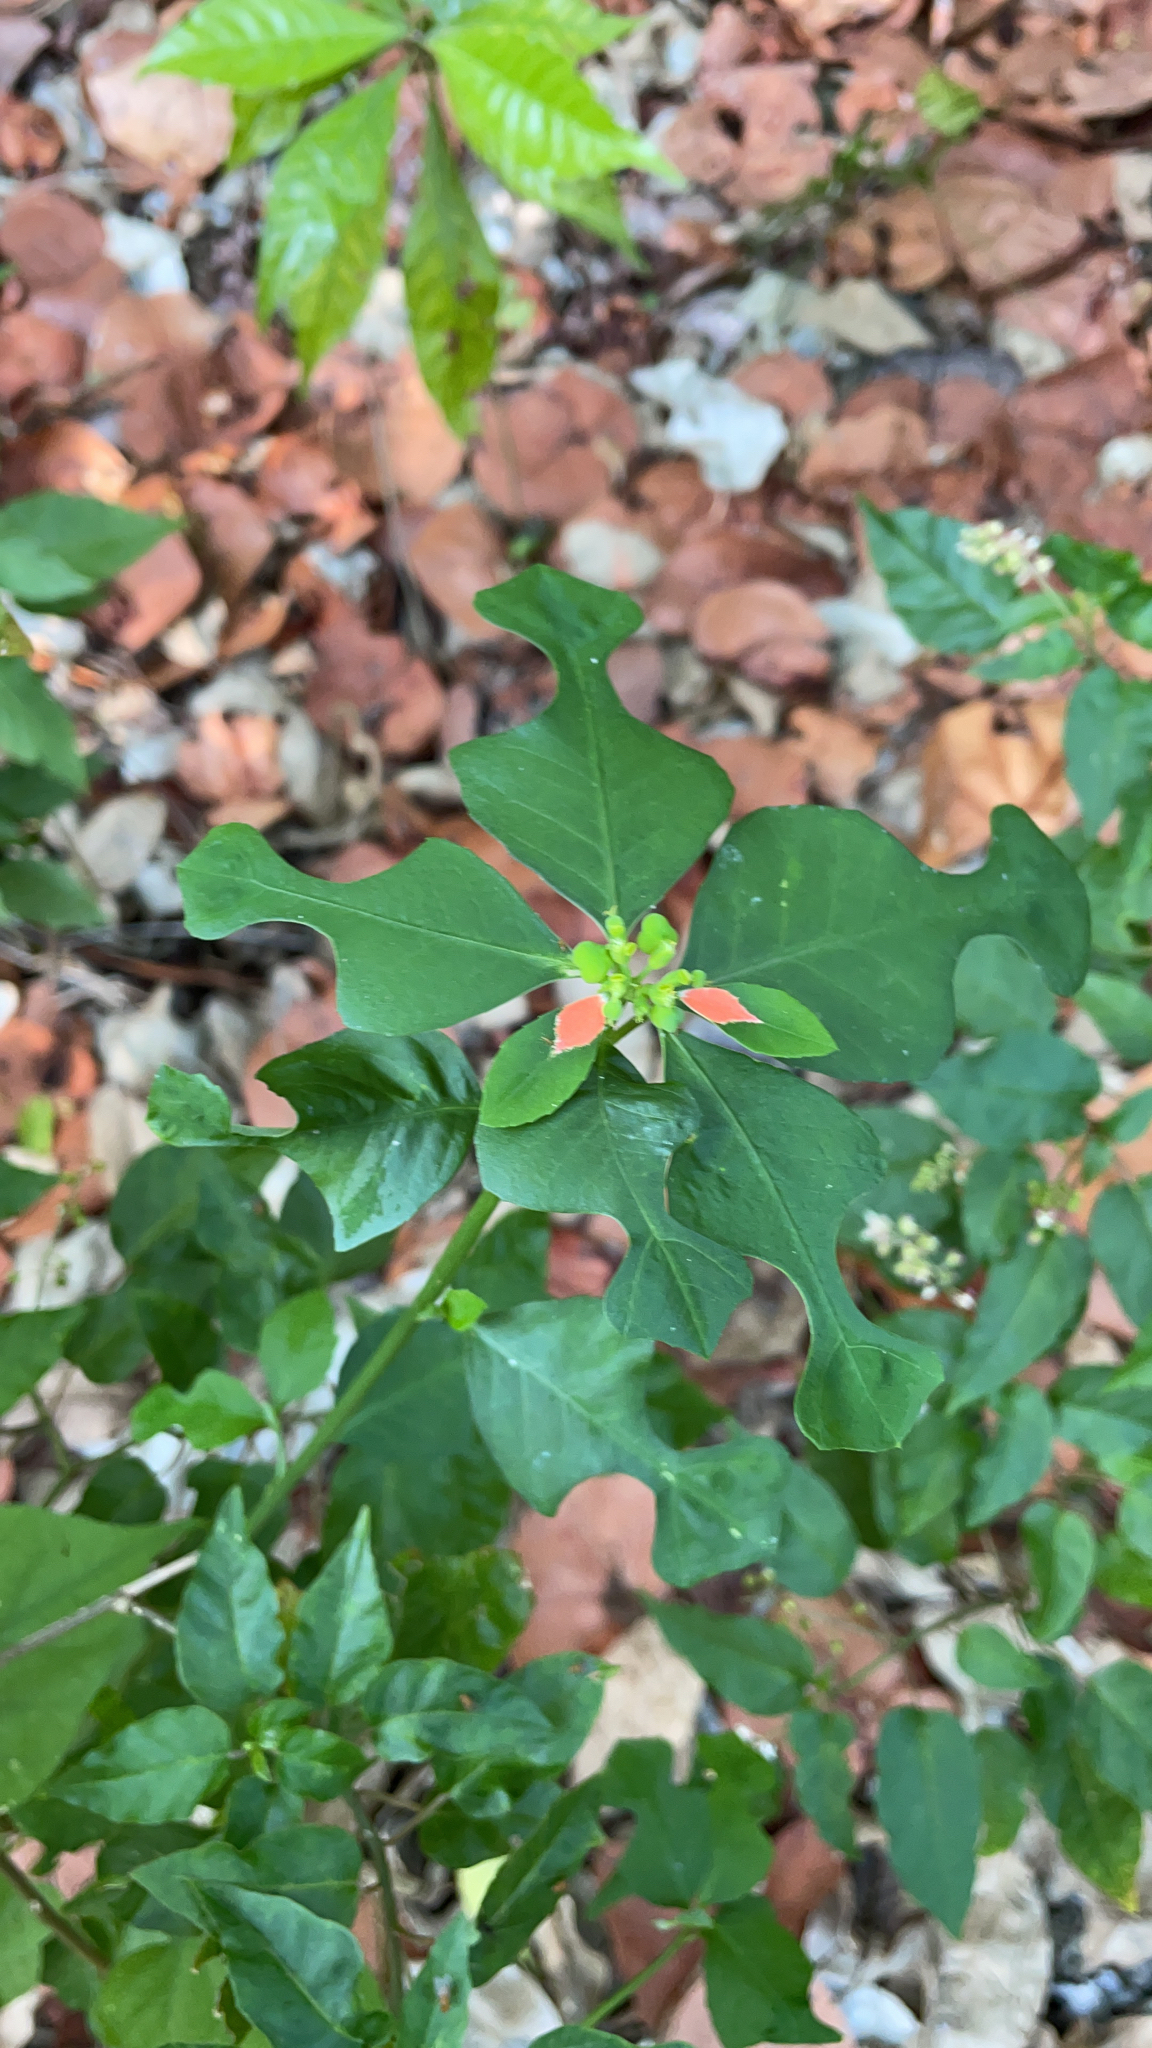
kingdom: Plantae
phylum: Tracheophyta
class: Magnoliopsida
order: Malpighiales
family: Euphorbiaceae
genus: Euphorbia
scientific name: Euphorbia heterophylla
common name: Mexican fireplant
